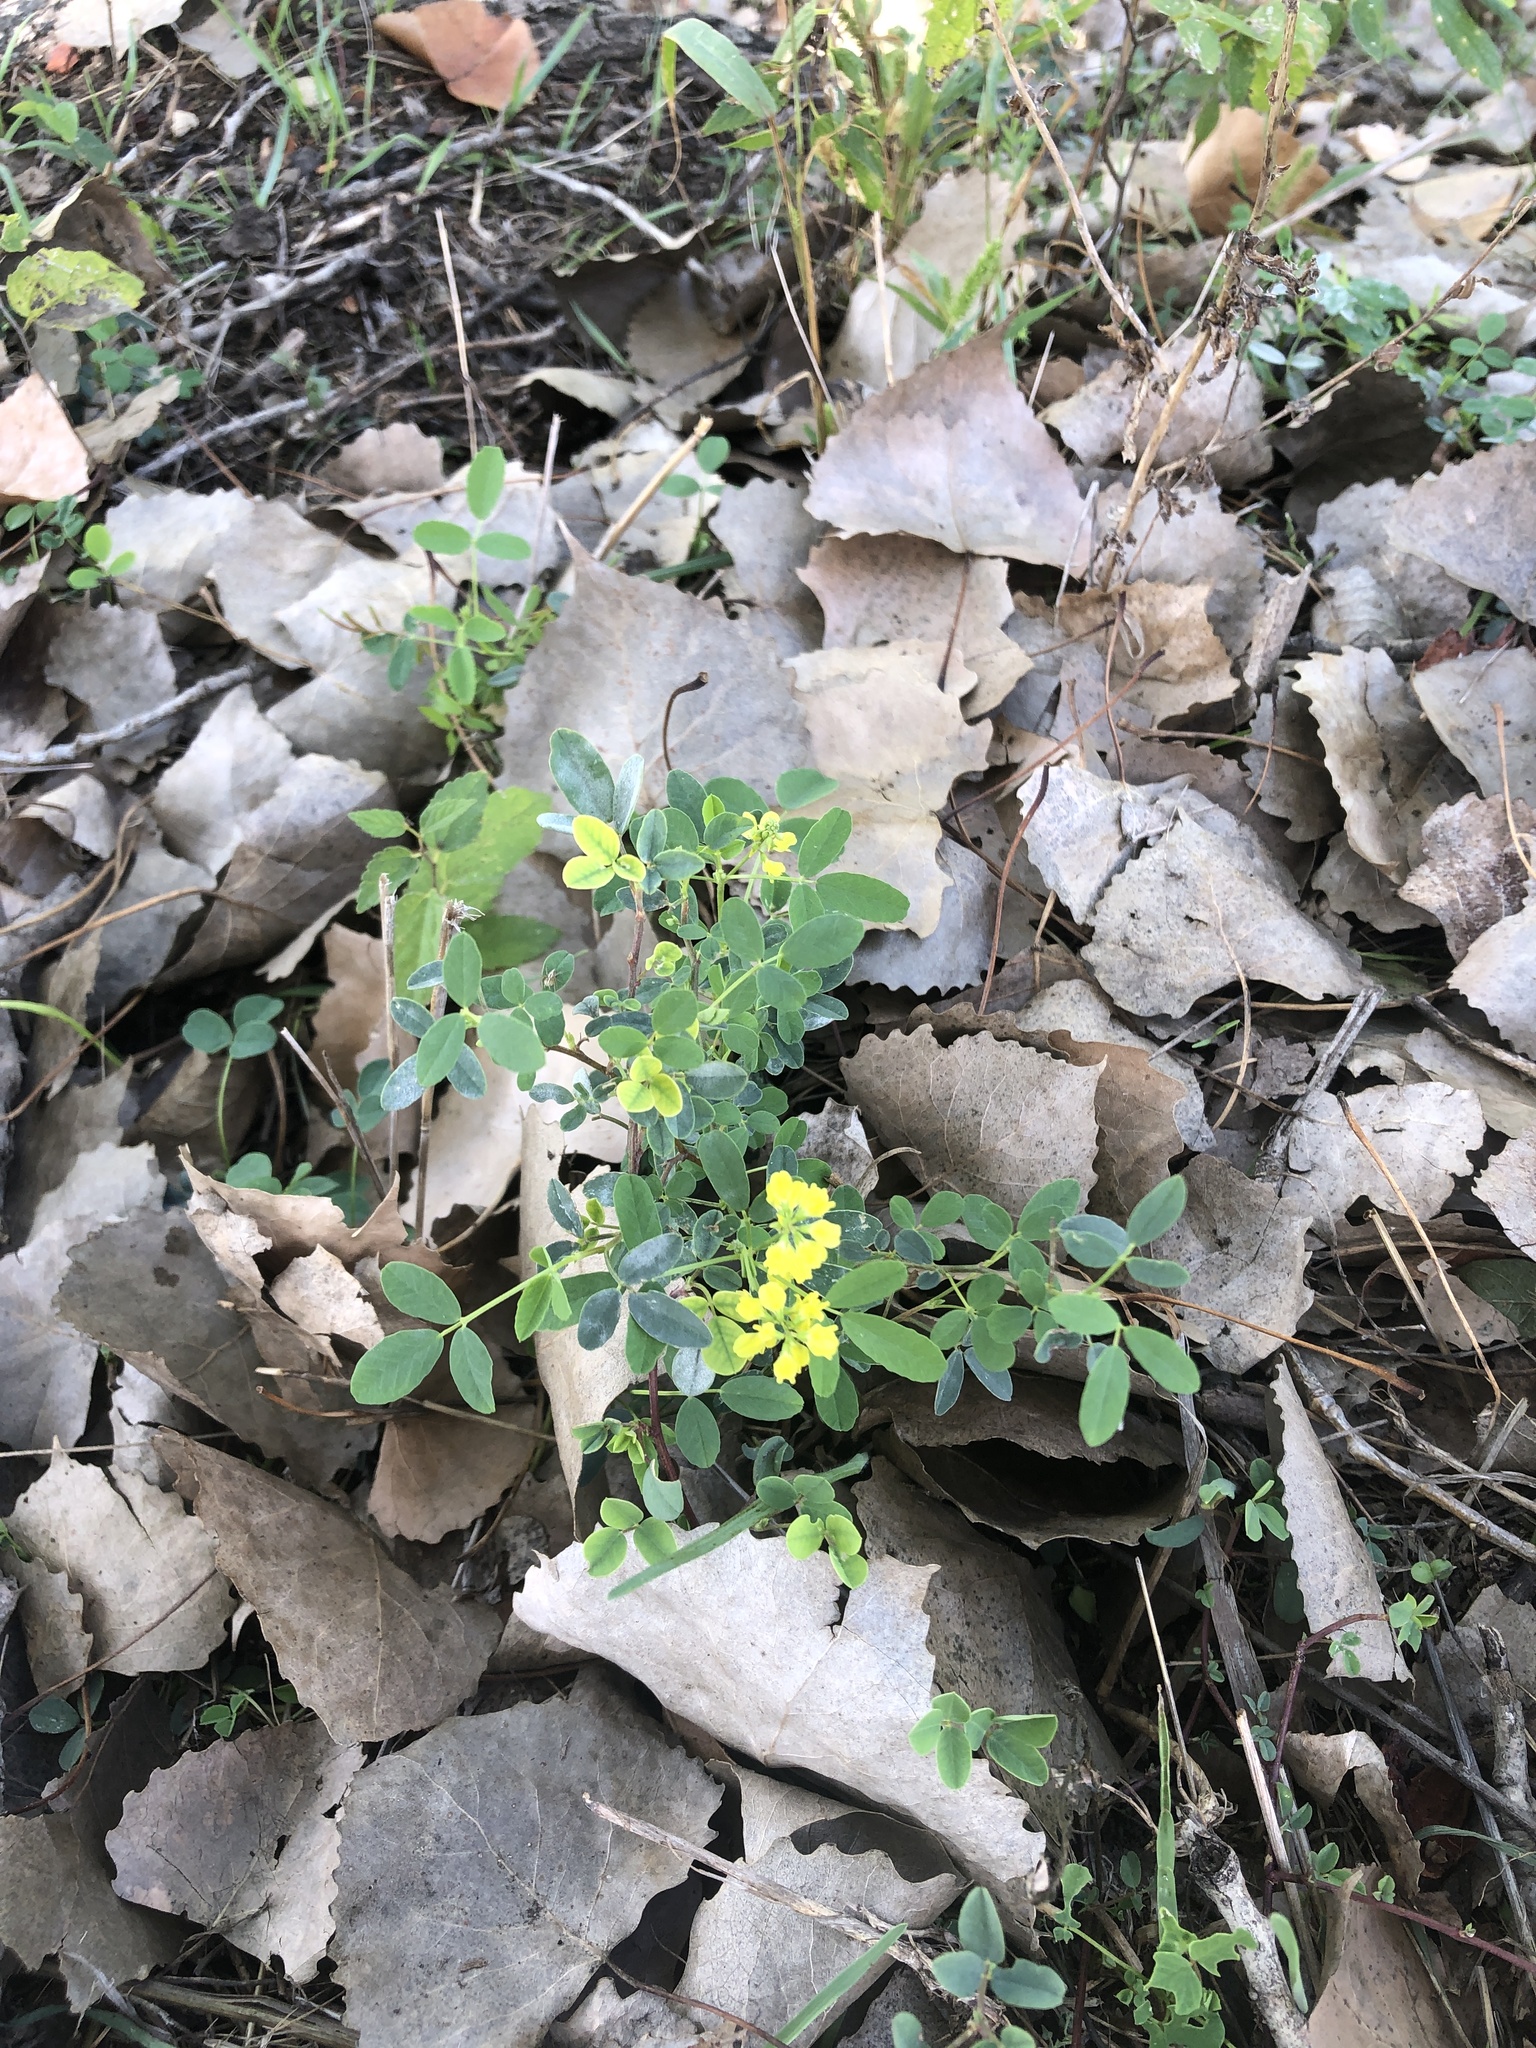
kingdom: Plantae
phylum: Tracheophyta
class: Magnoliopsida
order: Fabales
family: Fabaceae
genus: Melilotus
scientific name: Melilotus officinalis
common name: Sweetclover
